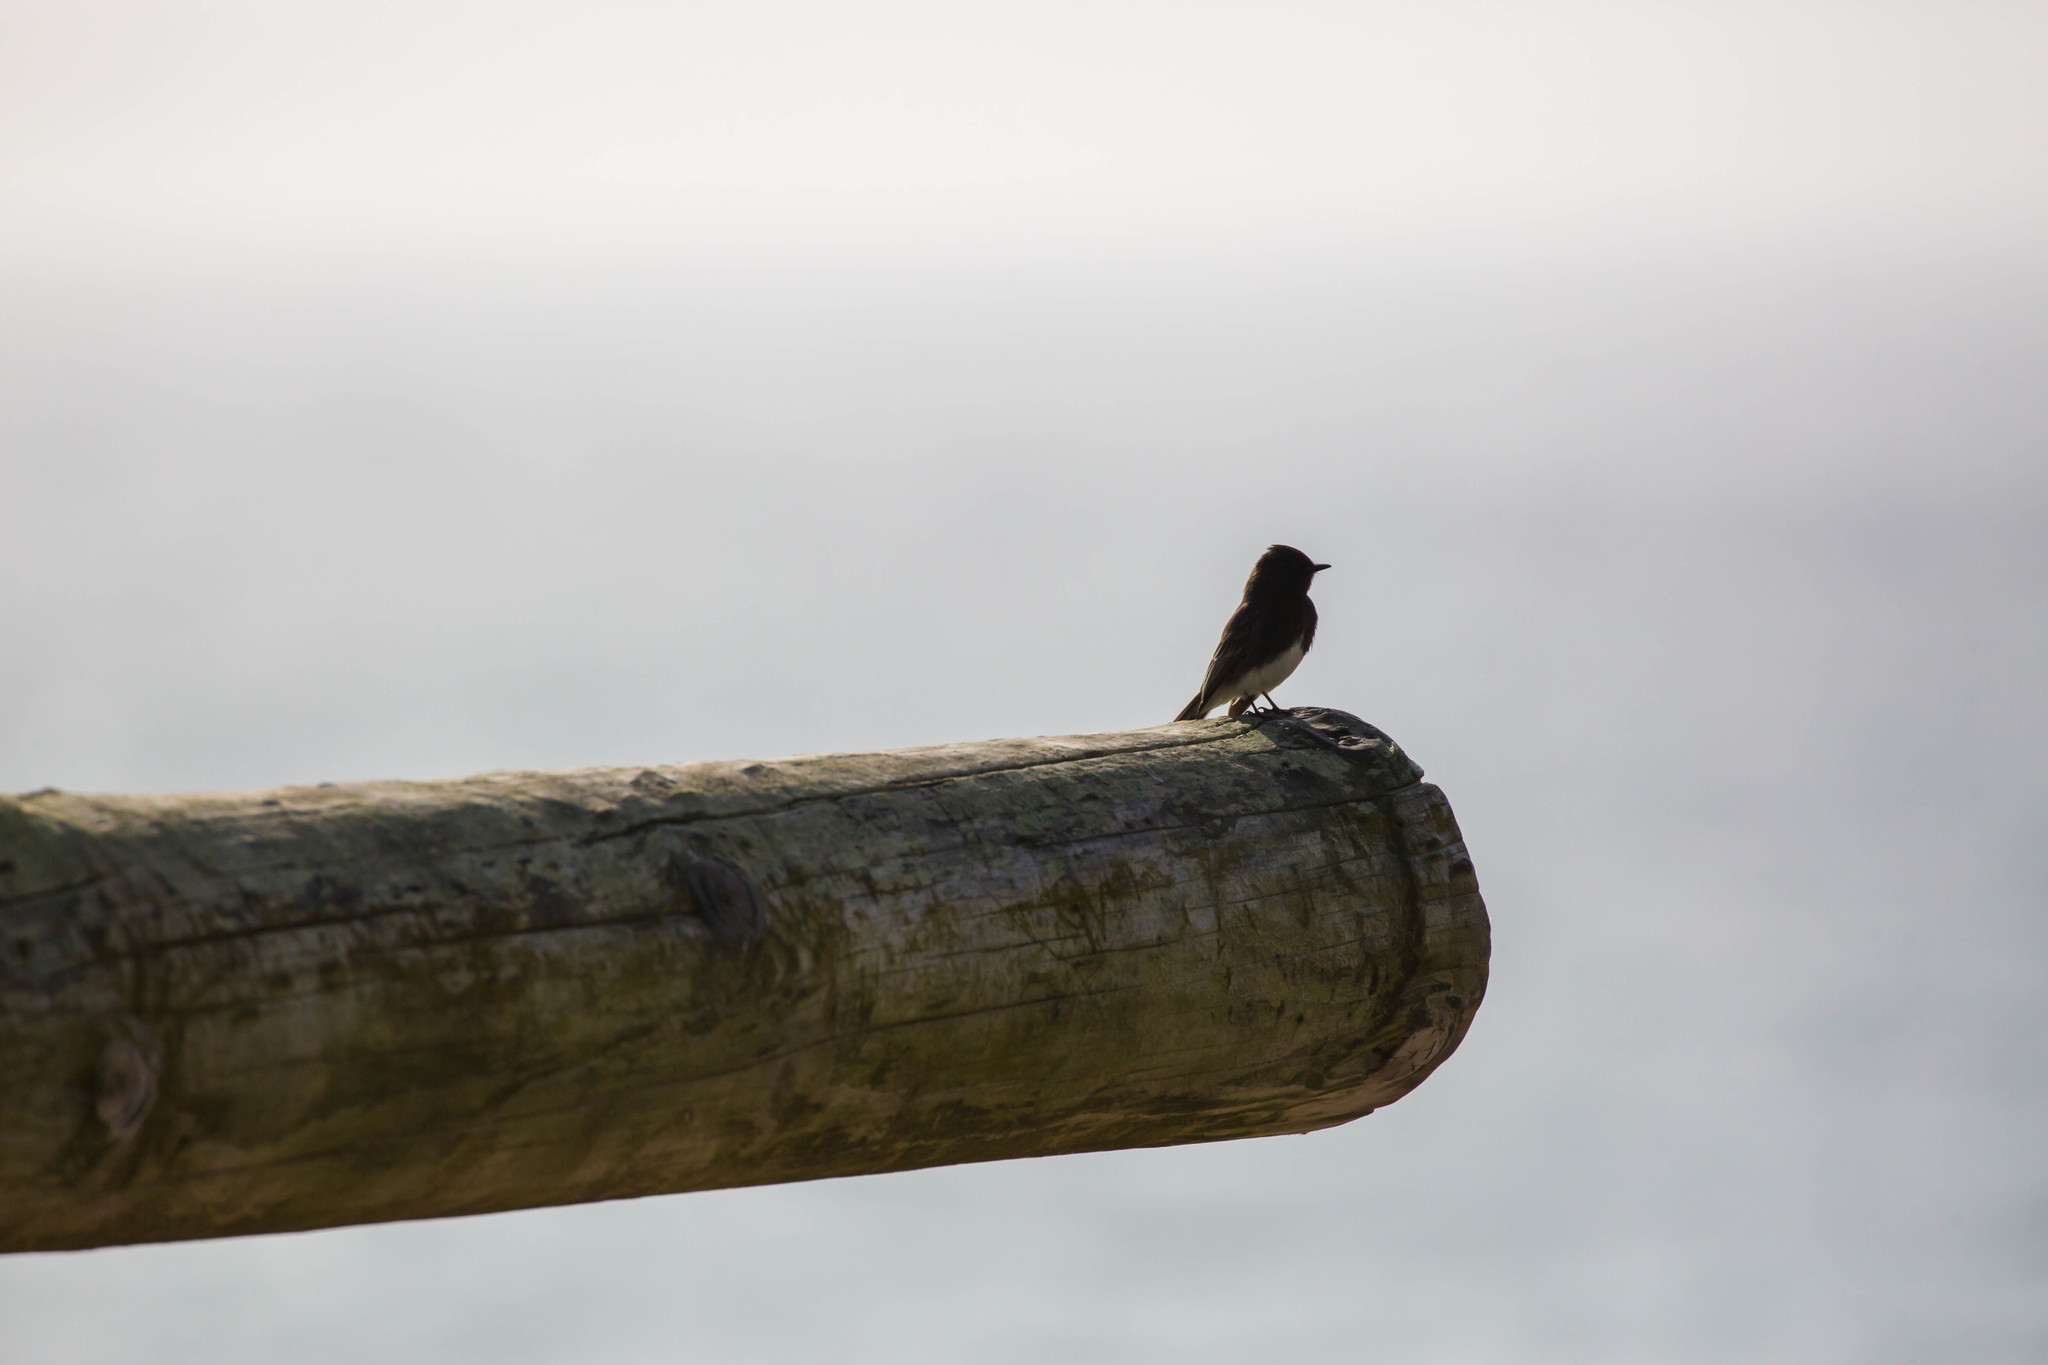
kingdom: Animalia
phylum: Chordata
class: Aves
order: Passeriformes
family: Tyrannidae
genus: Sayornis
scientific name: Sayornis nigricans
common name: Black phoebe
